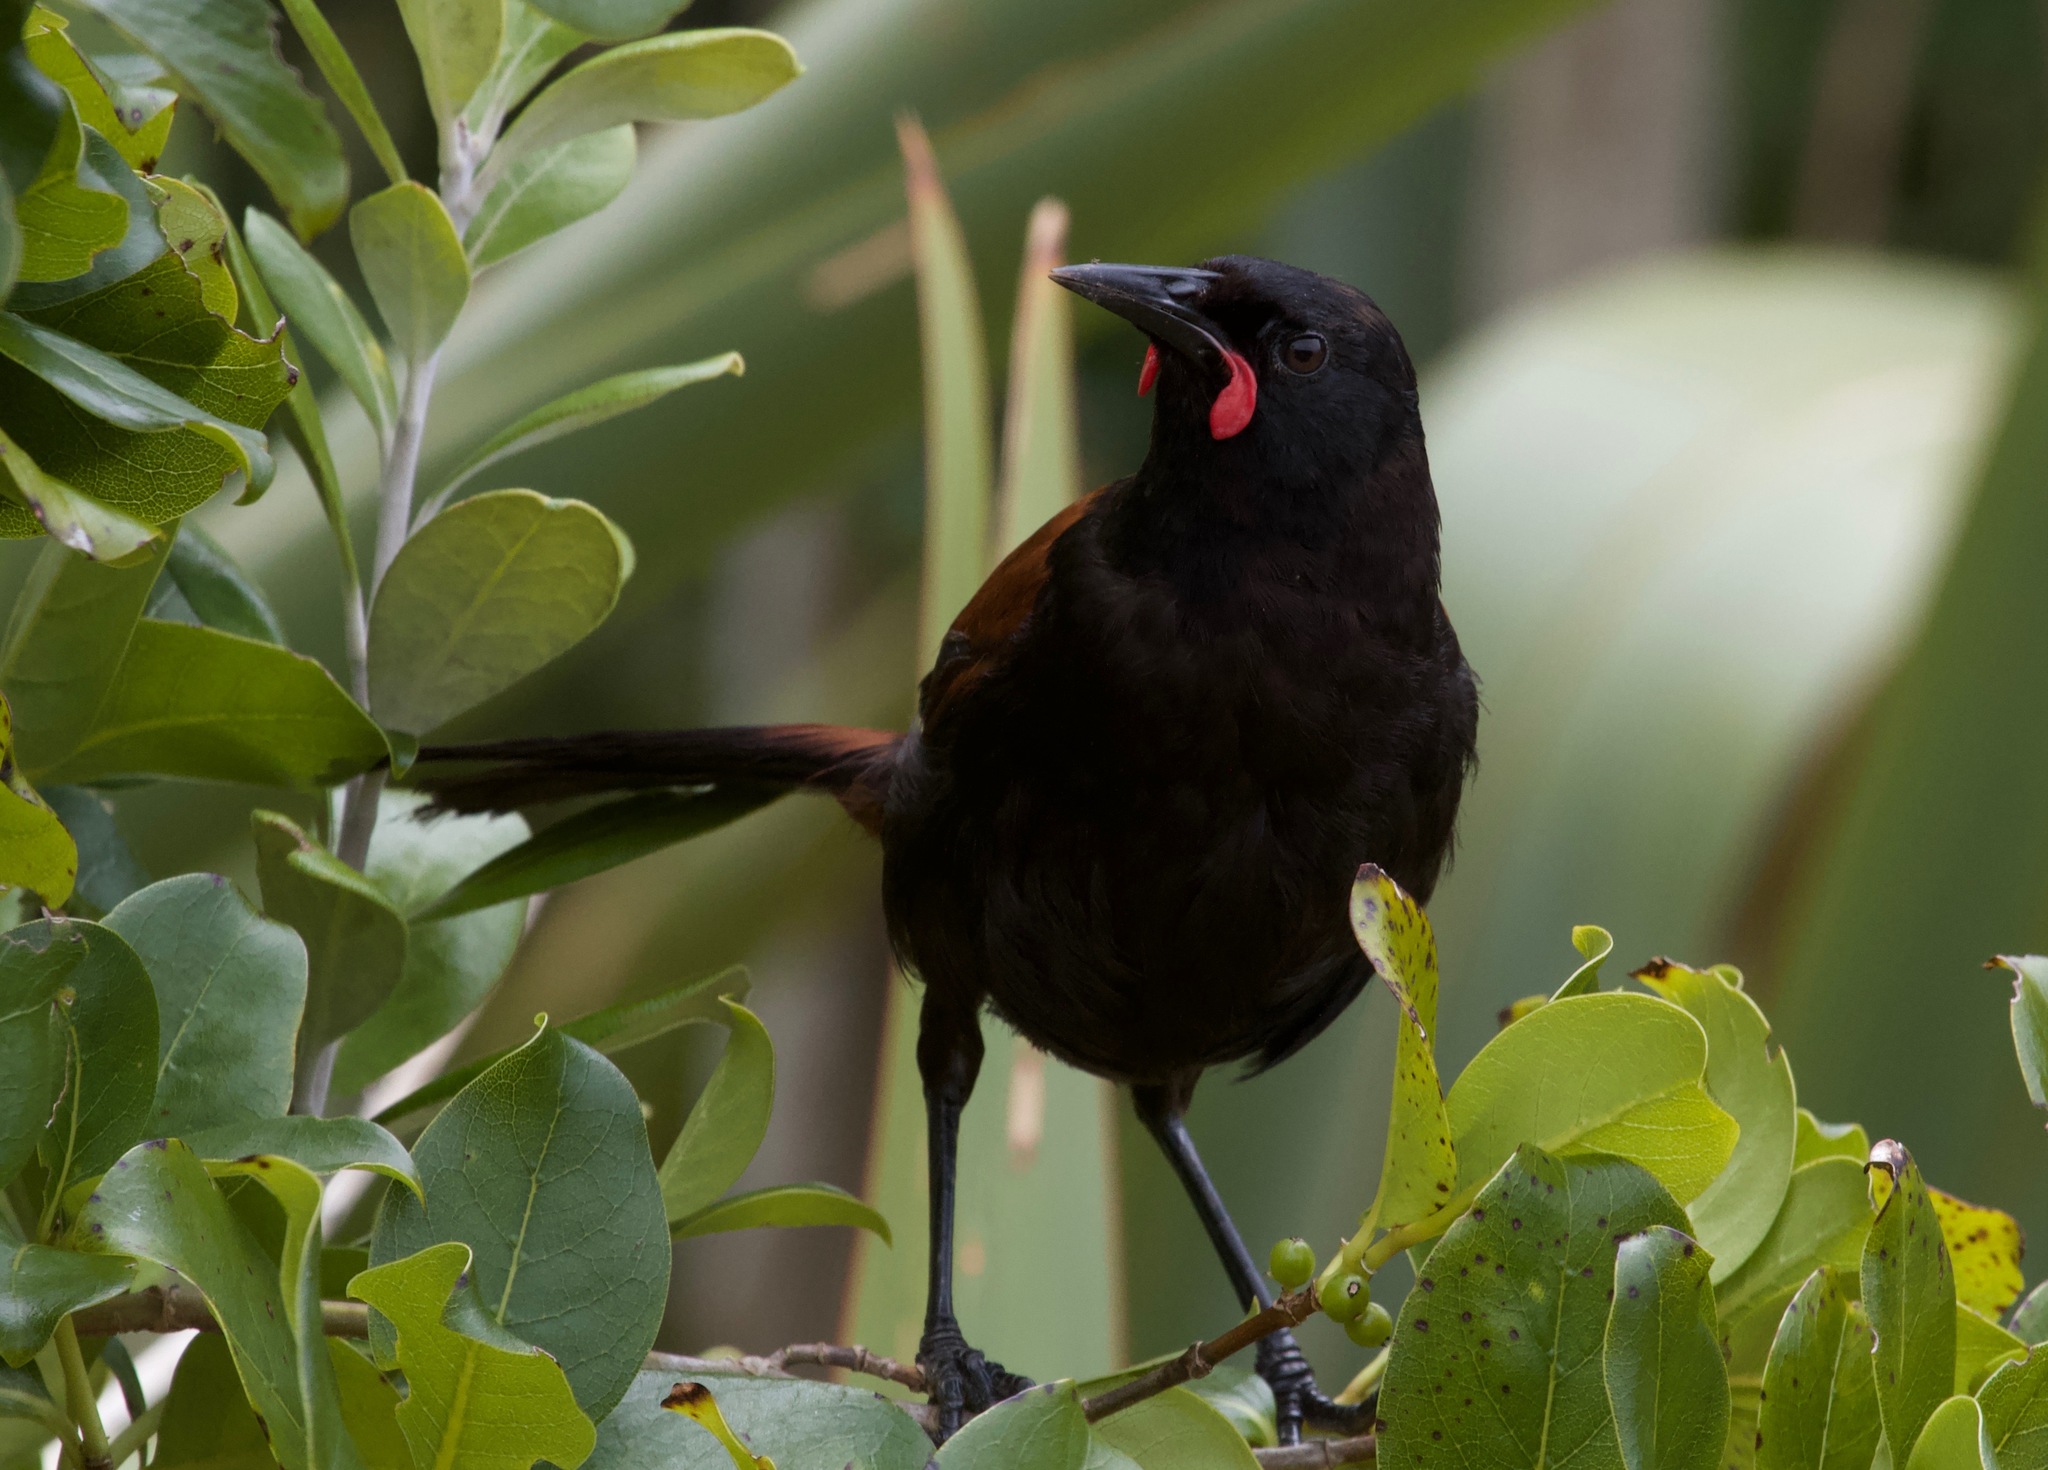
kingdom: Animalia
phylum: Chordata
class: Aves
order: Passeriformes
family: Callaeatidae
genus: Philesturnus
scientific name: Philesturnus carunculatus
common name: South island saddleback
